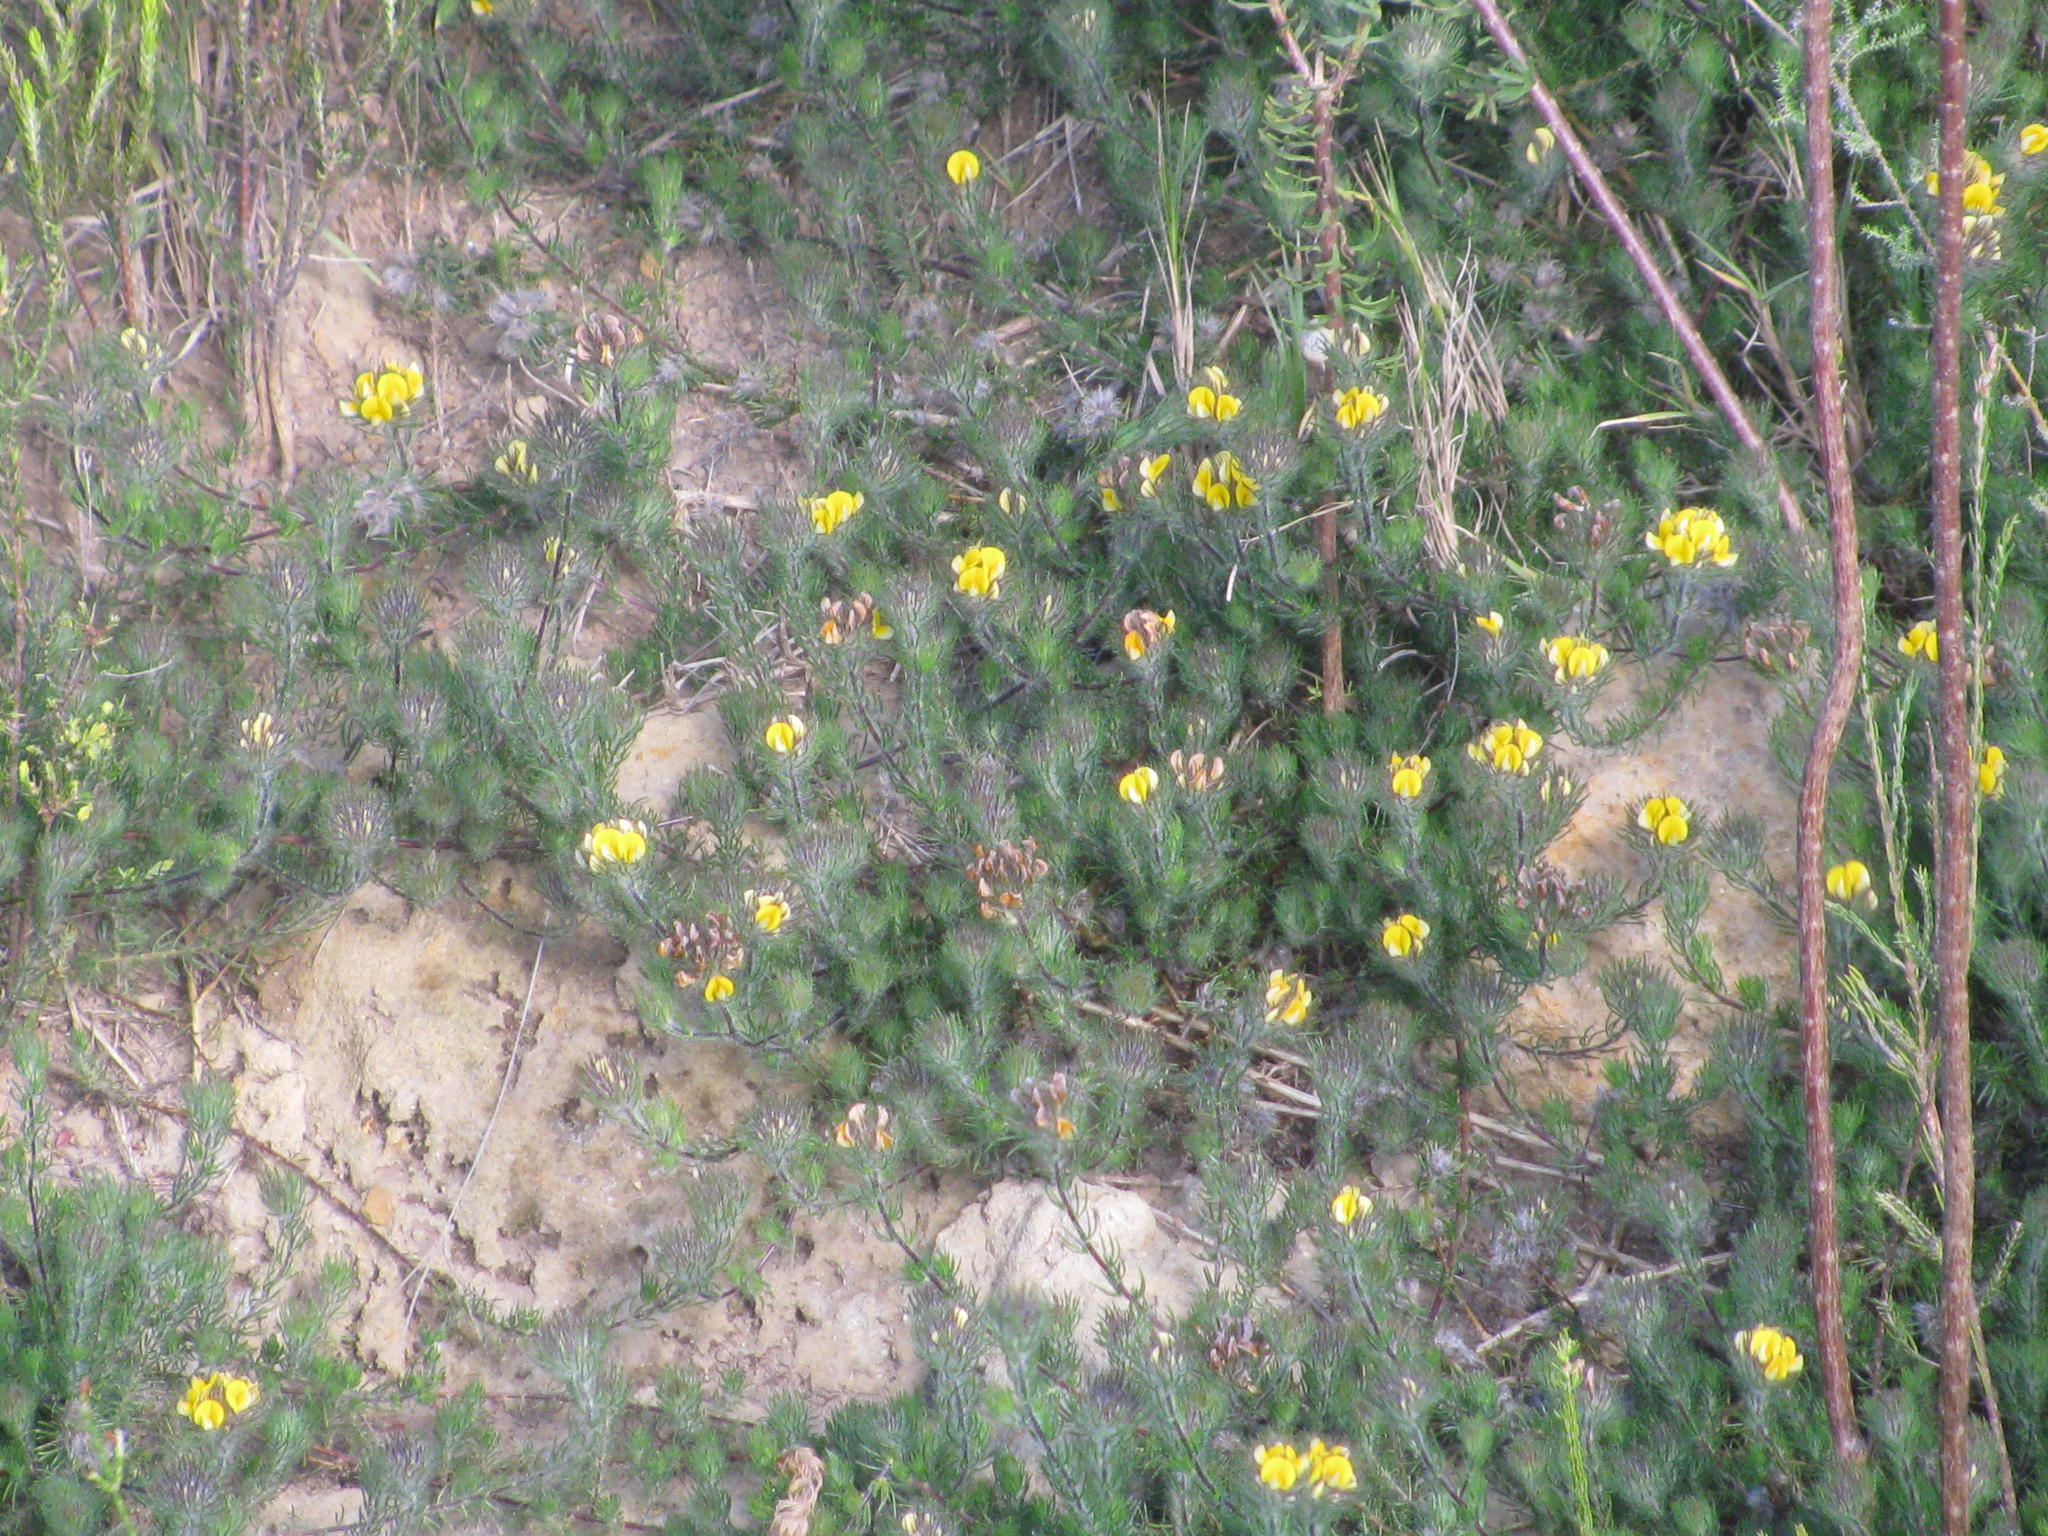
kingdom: Plantae
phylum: Tracheophyta
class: Magnoliopsida
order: Fabales
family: Fabaceae
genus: Aspalathus
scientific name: Aspalathus pigmentosa
